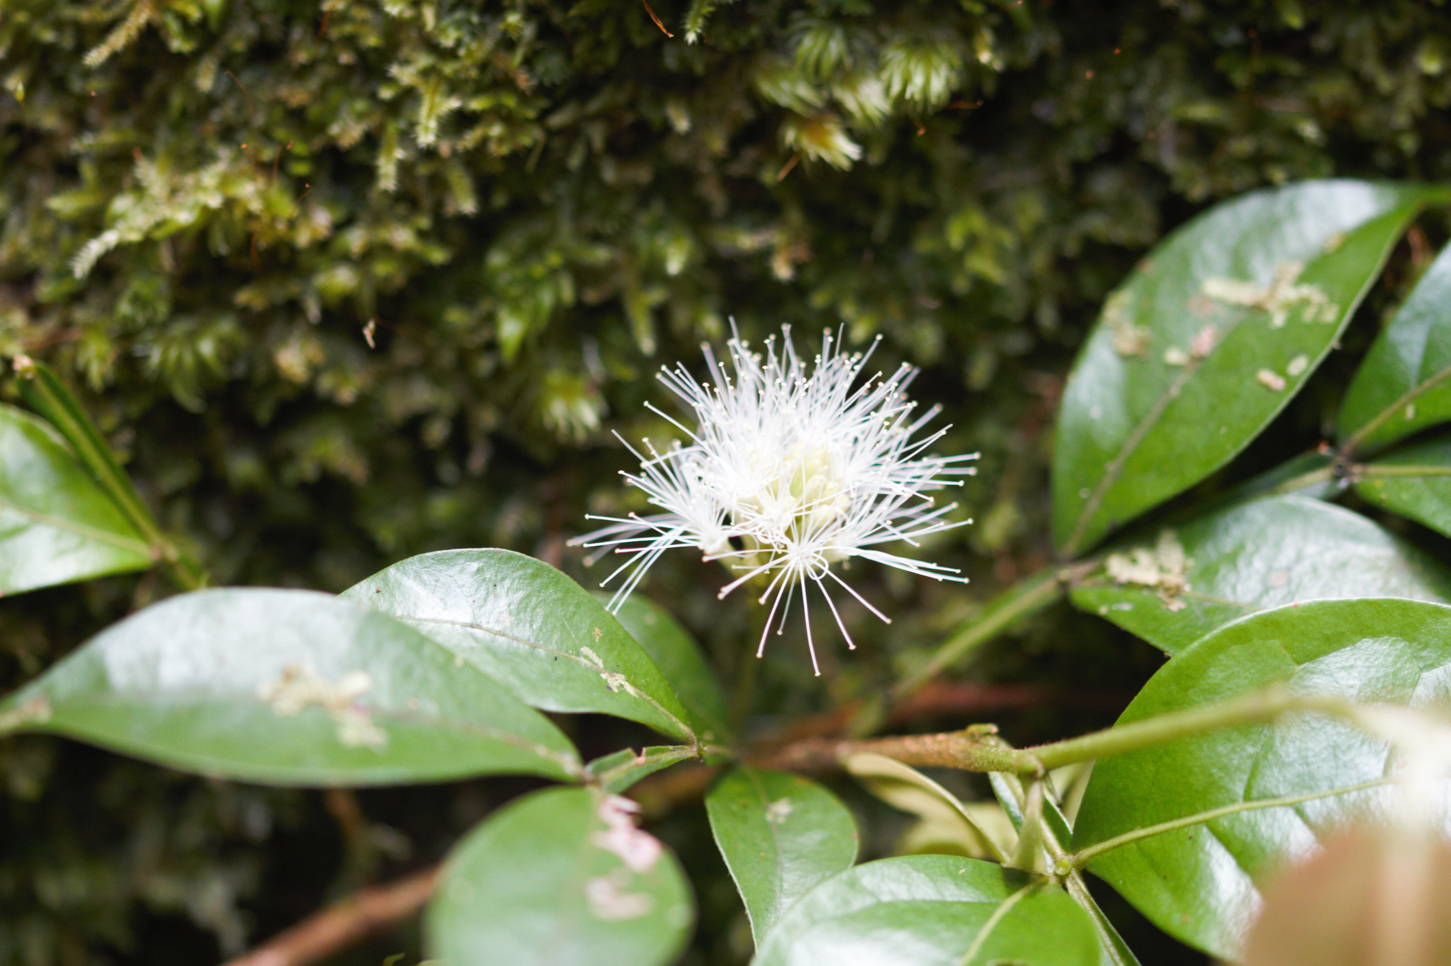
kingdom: Plantae
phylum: Tracheophyta
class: Magnoliopsida
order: Fabales
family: Fabaceae
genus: Inga
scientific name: Inga
